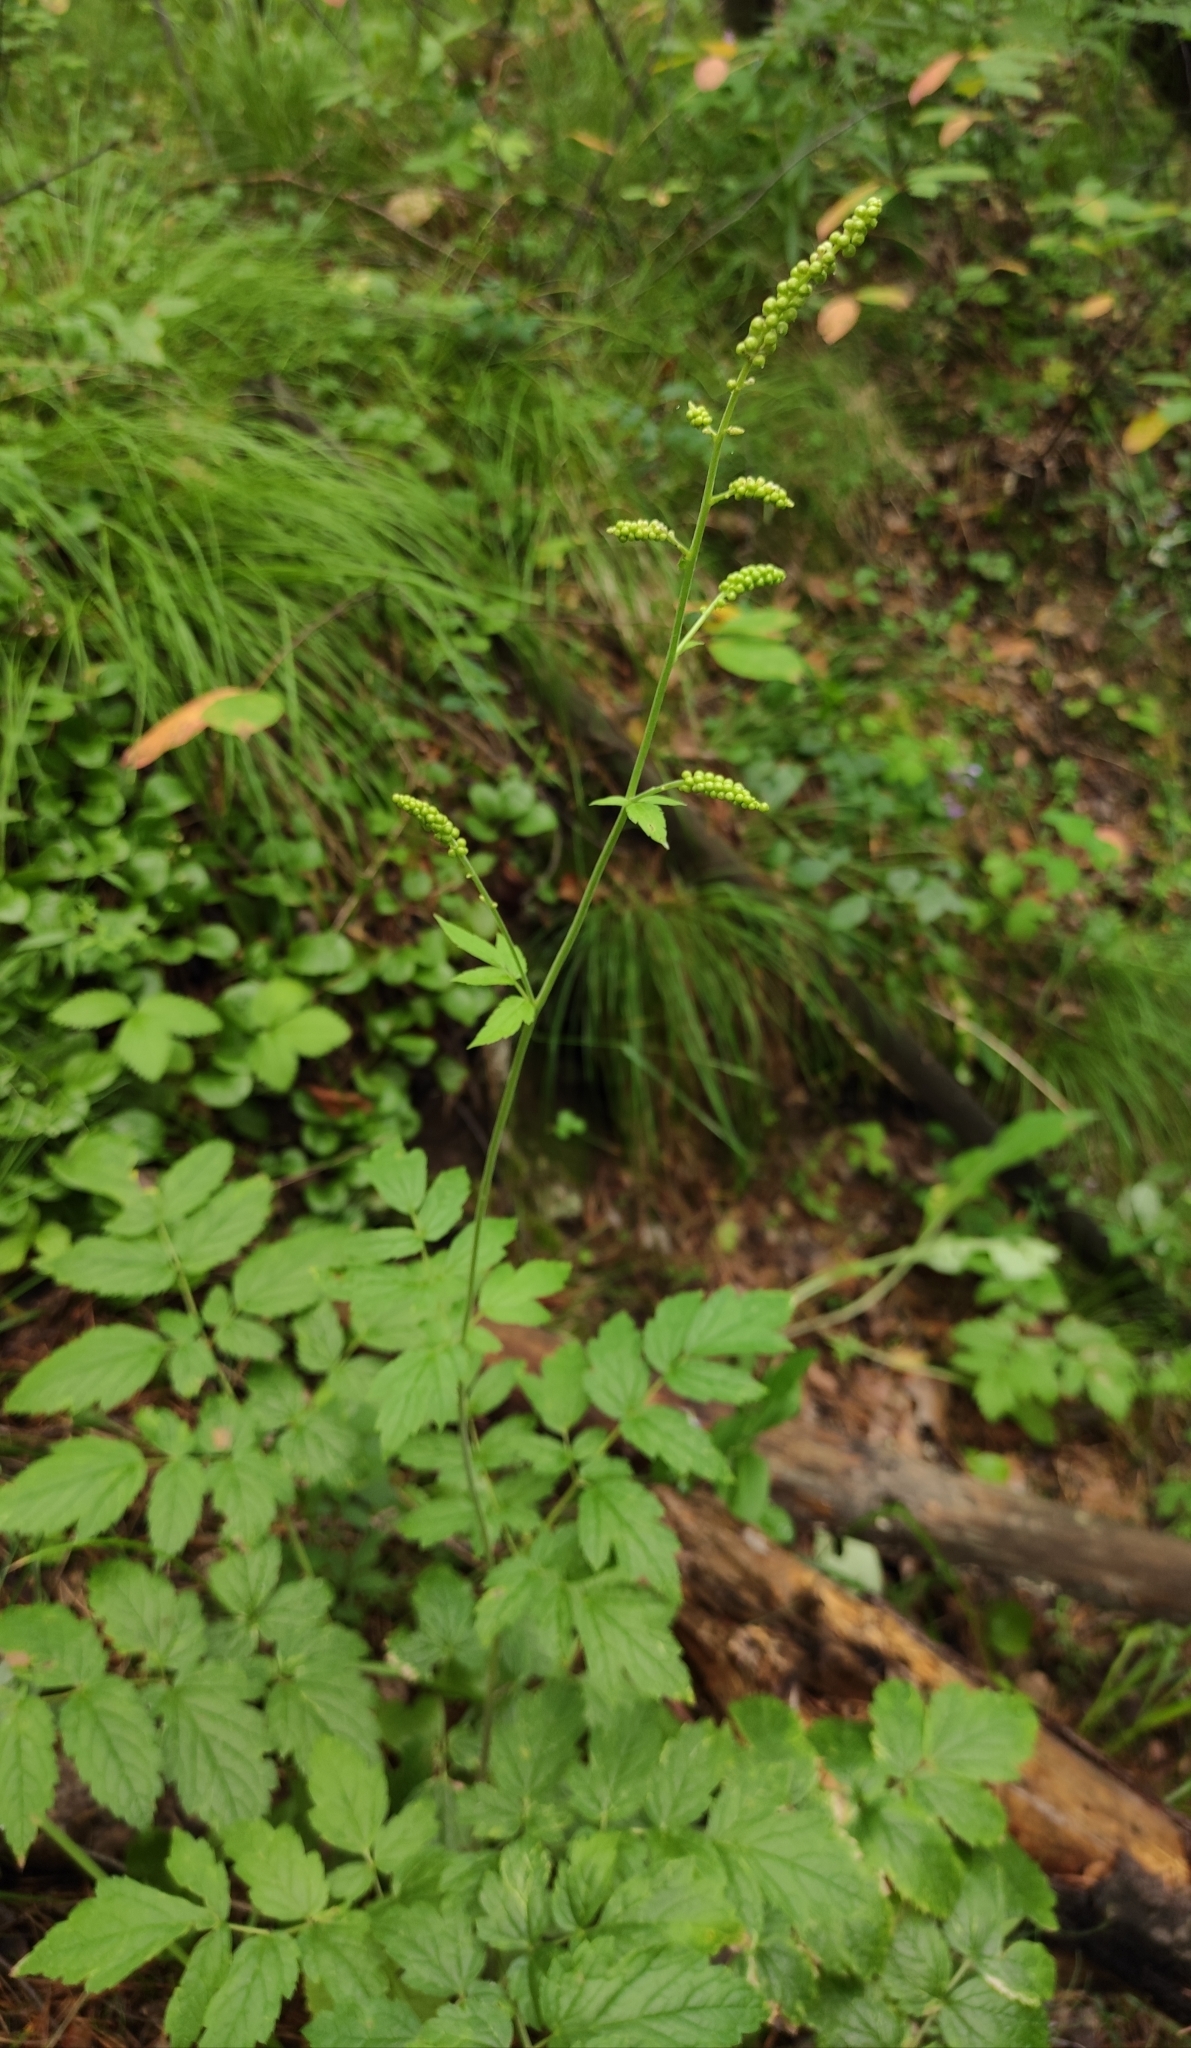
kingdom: Plantae
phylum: Tracheophyta
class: Magnoliopsida
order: Ranunculales
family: Ranunculaceae
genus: Actaea
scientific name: Actaea cimicifuga
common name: Chinese cimicifuga
